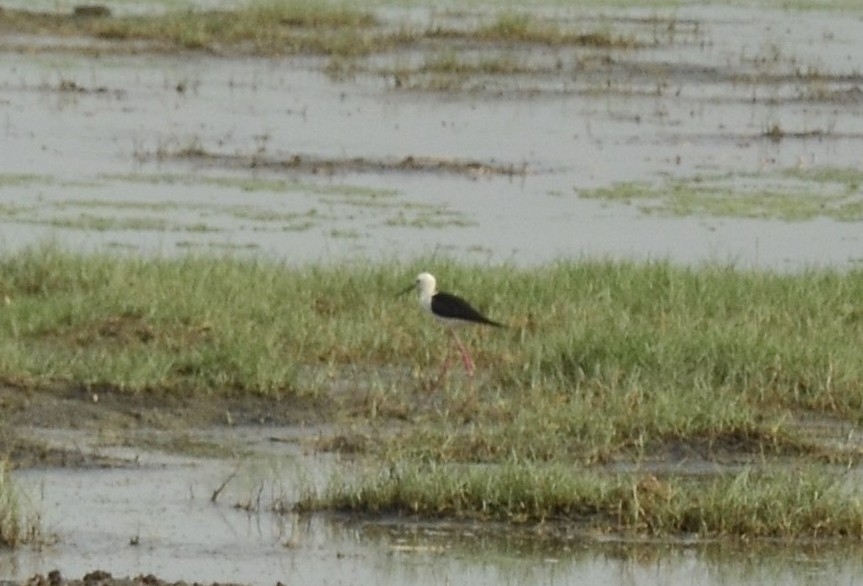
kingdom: Animalia
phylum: Chordata
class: Aves
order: Charadriiformes
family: Recurvirostridae
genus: Himantopus
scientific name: Himantopus himantopus
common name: Black-winged stilt
